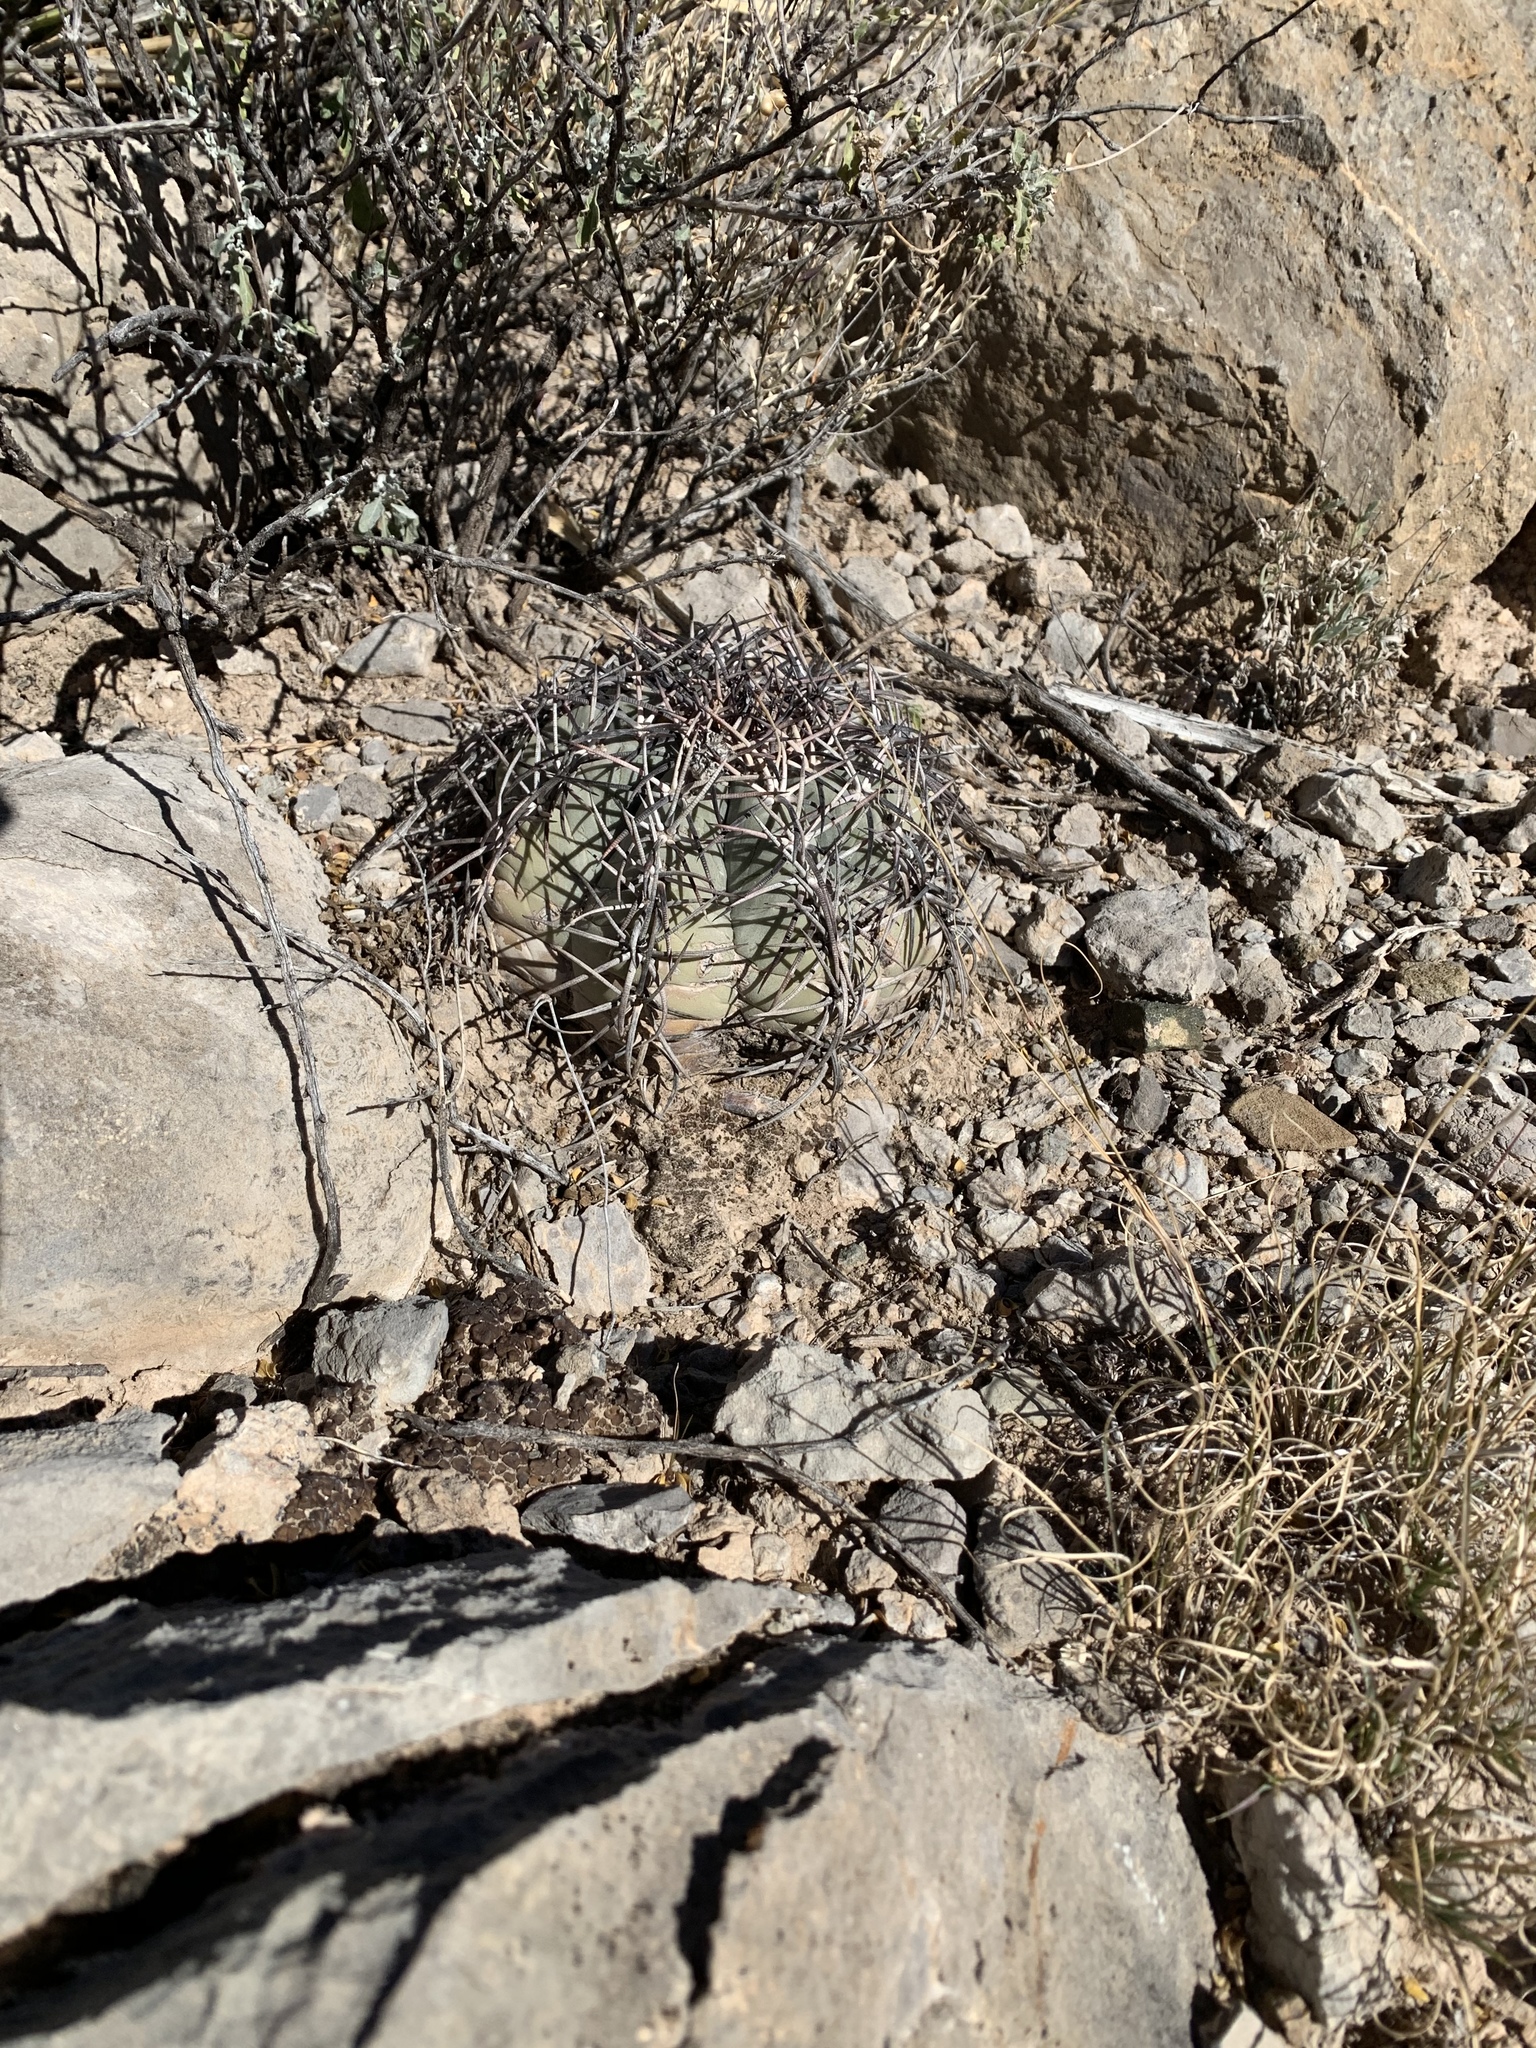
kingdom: Plantae
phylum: Tracheophyta
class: Magnoliopsida
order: Caryophyllales
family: Cactaceae
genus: Echinocactus
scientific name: Echinocactus horizonthalonius
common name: Devilshead
